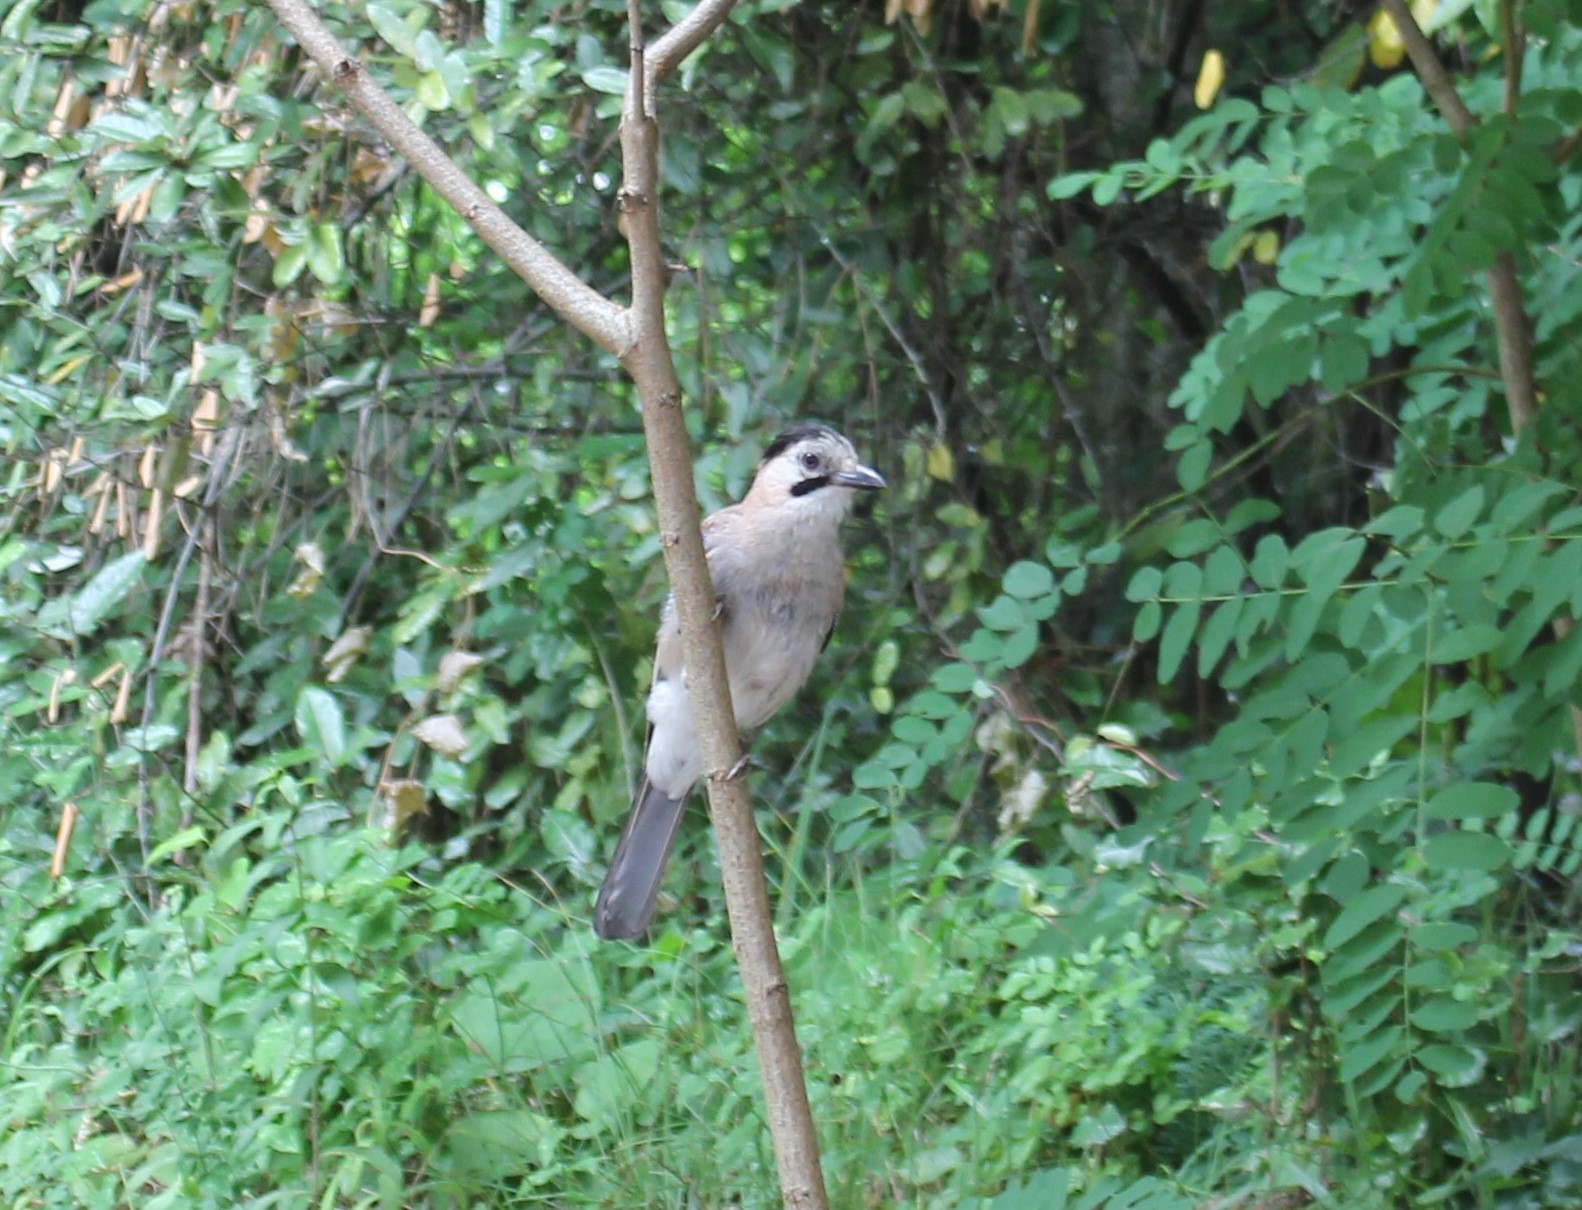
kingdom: Animalia
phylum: Chordata
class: Aves
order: Passeriformes
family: Corvidae
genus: Garrulus
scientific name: Garrulus glandarius
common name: Eurasian jay
